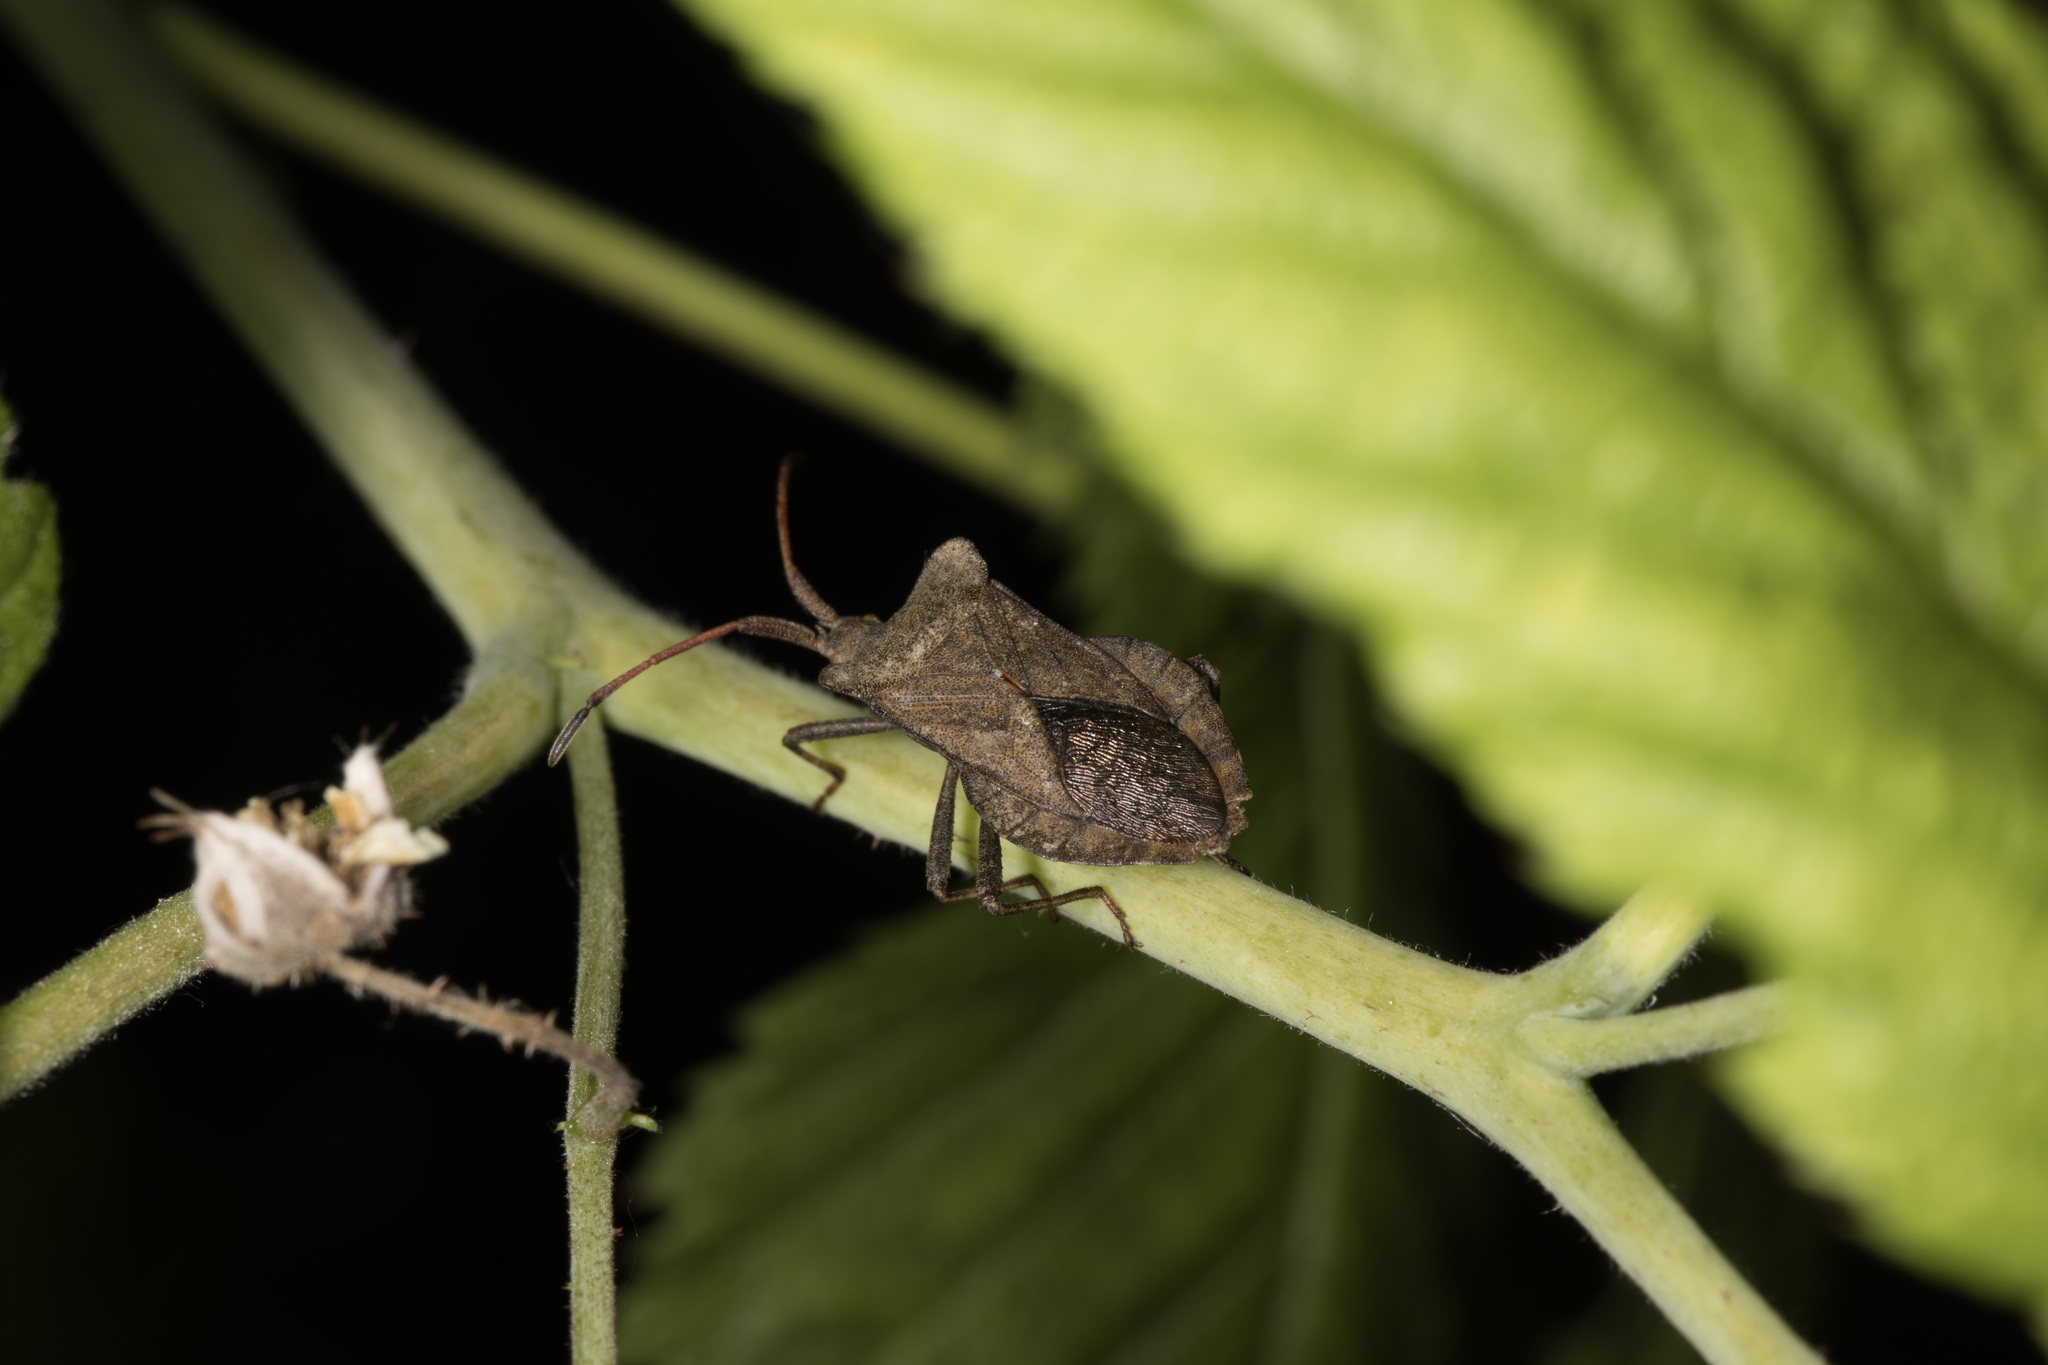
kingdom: Animalia
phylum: Arthropoda
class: Insecta
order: Hemiptera
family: Coreidae
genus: Coreus
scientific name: Coreus marginatus
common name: Dock bug
